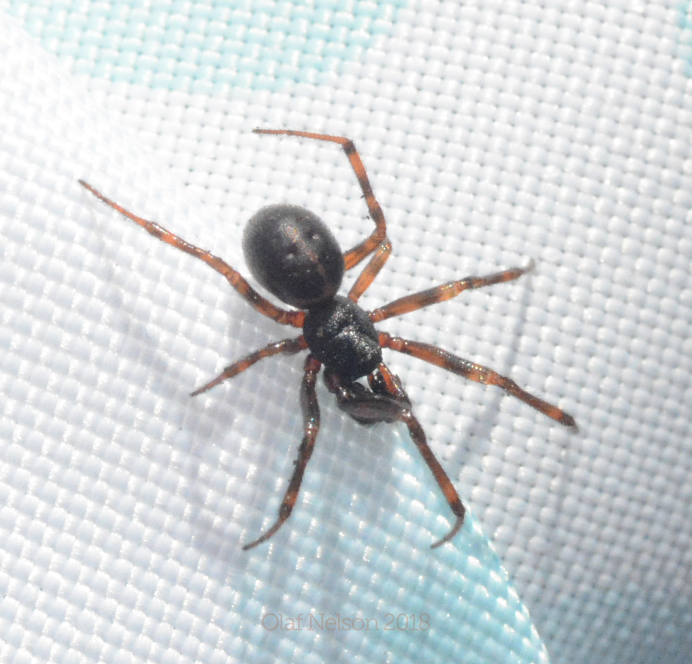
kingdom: Animalia
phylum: Arthropoda
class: Arachnida
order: Araneae
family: Theridiidae
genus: Steatoda
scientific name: Steatoda borealis
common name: Boreal combfoot
